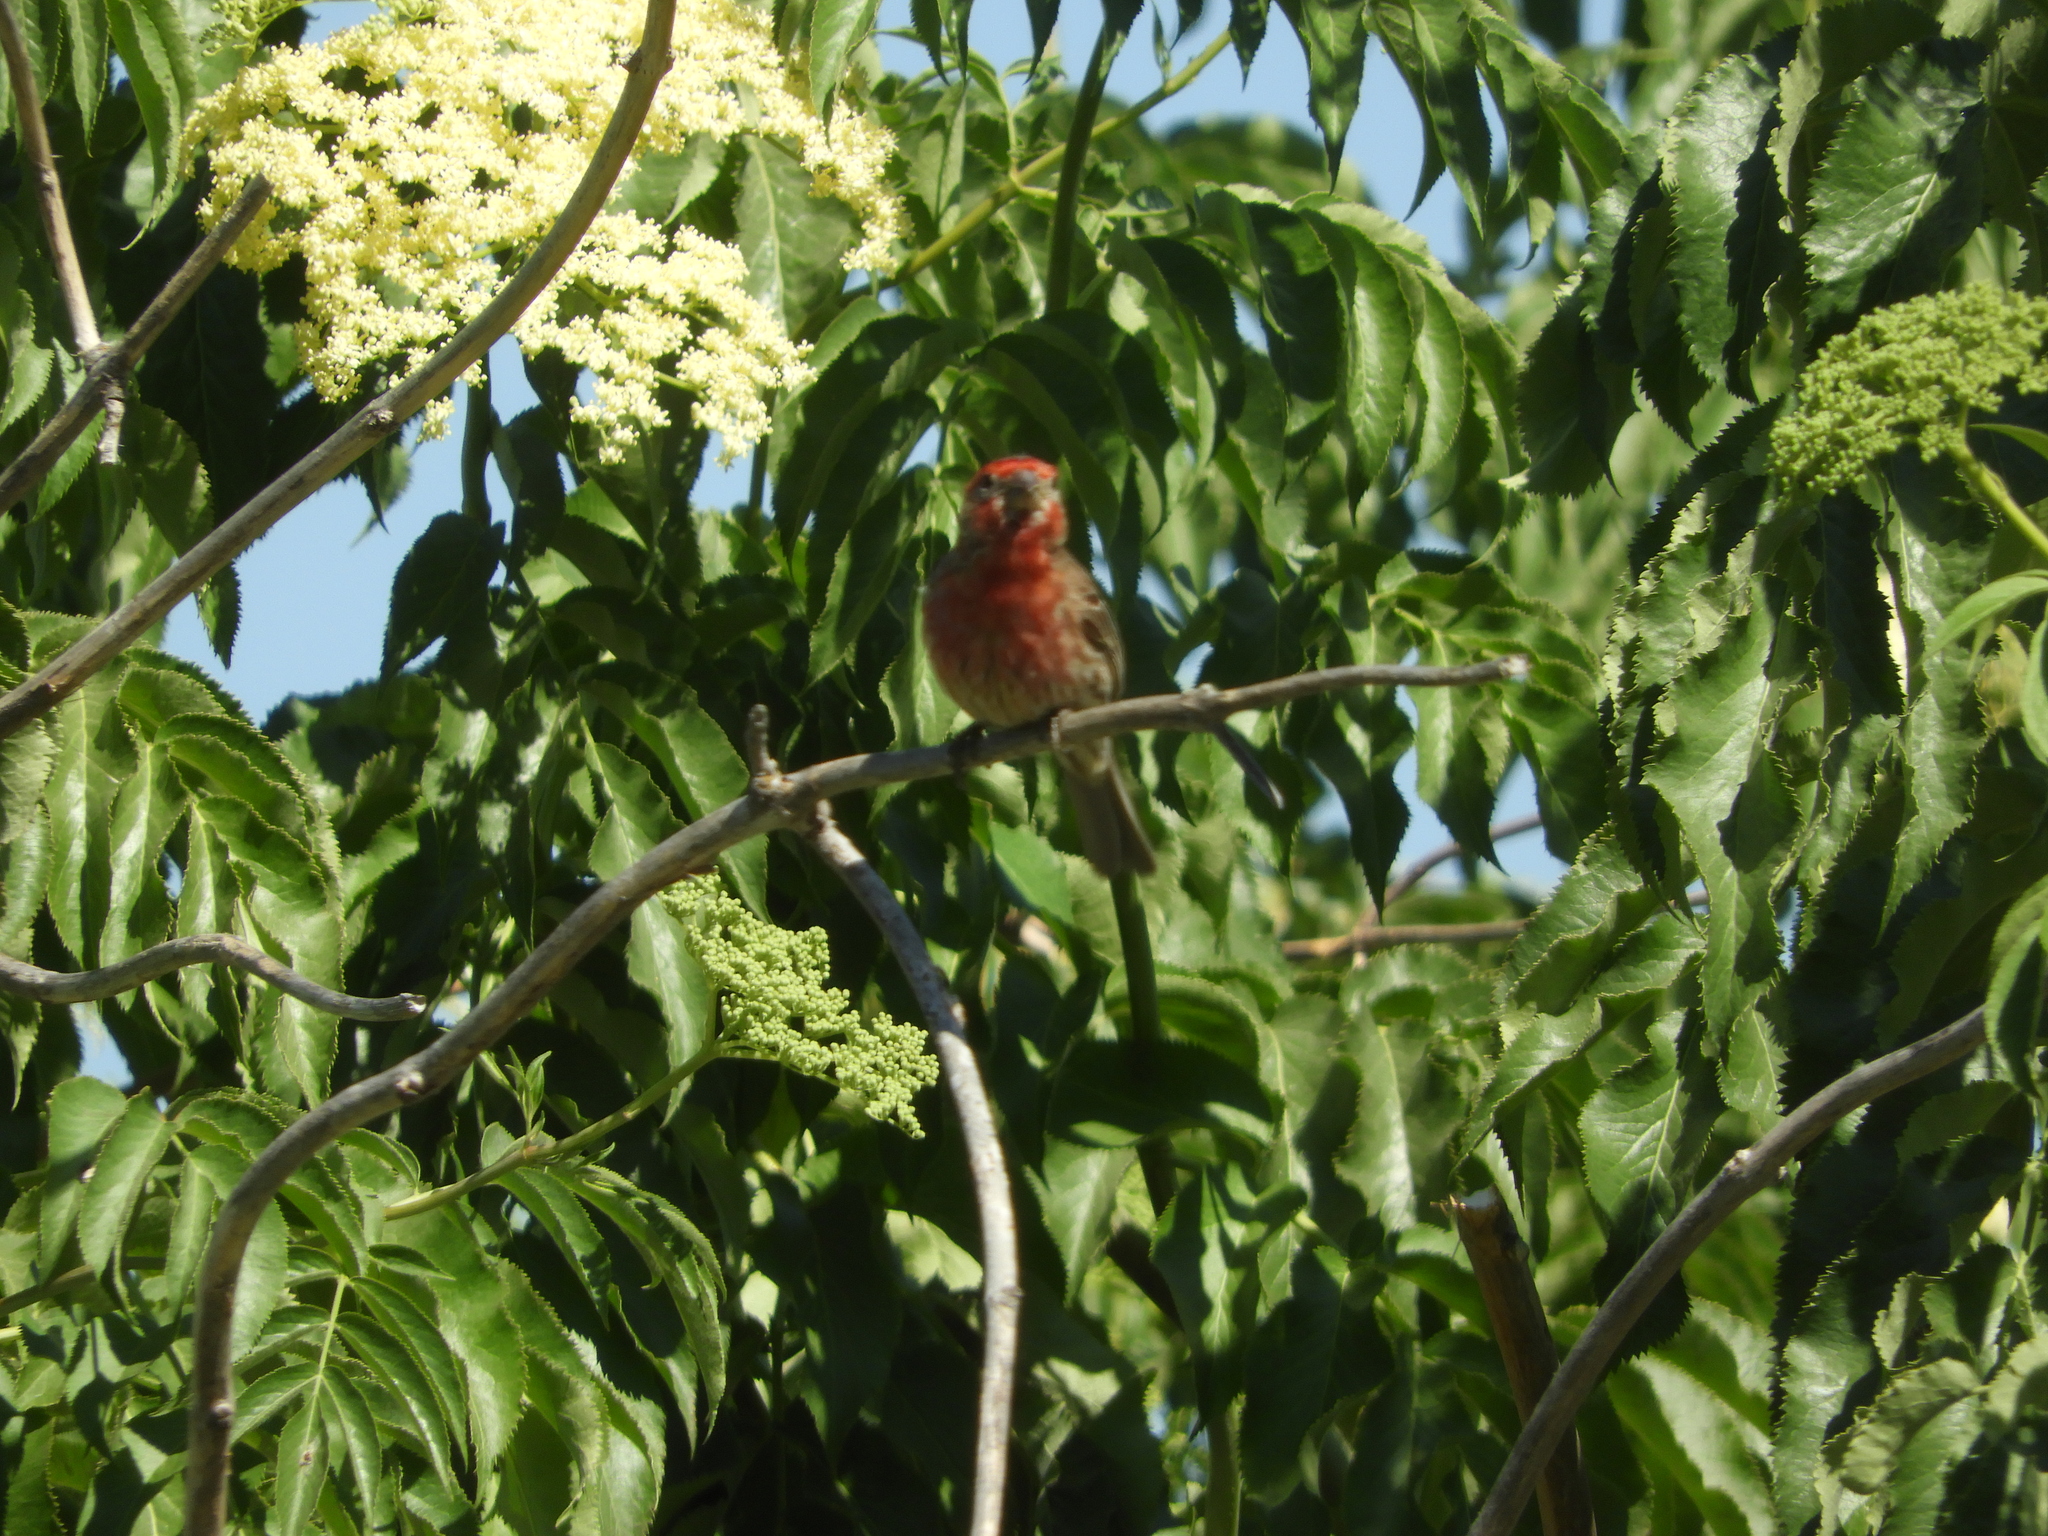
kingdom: Animalia
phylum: Chordata
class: Aves
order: Passeriformes
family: Fringillidae
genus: Haemorhous
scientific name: Haemorhous mexicanus
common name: House finch
